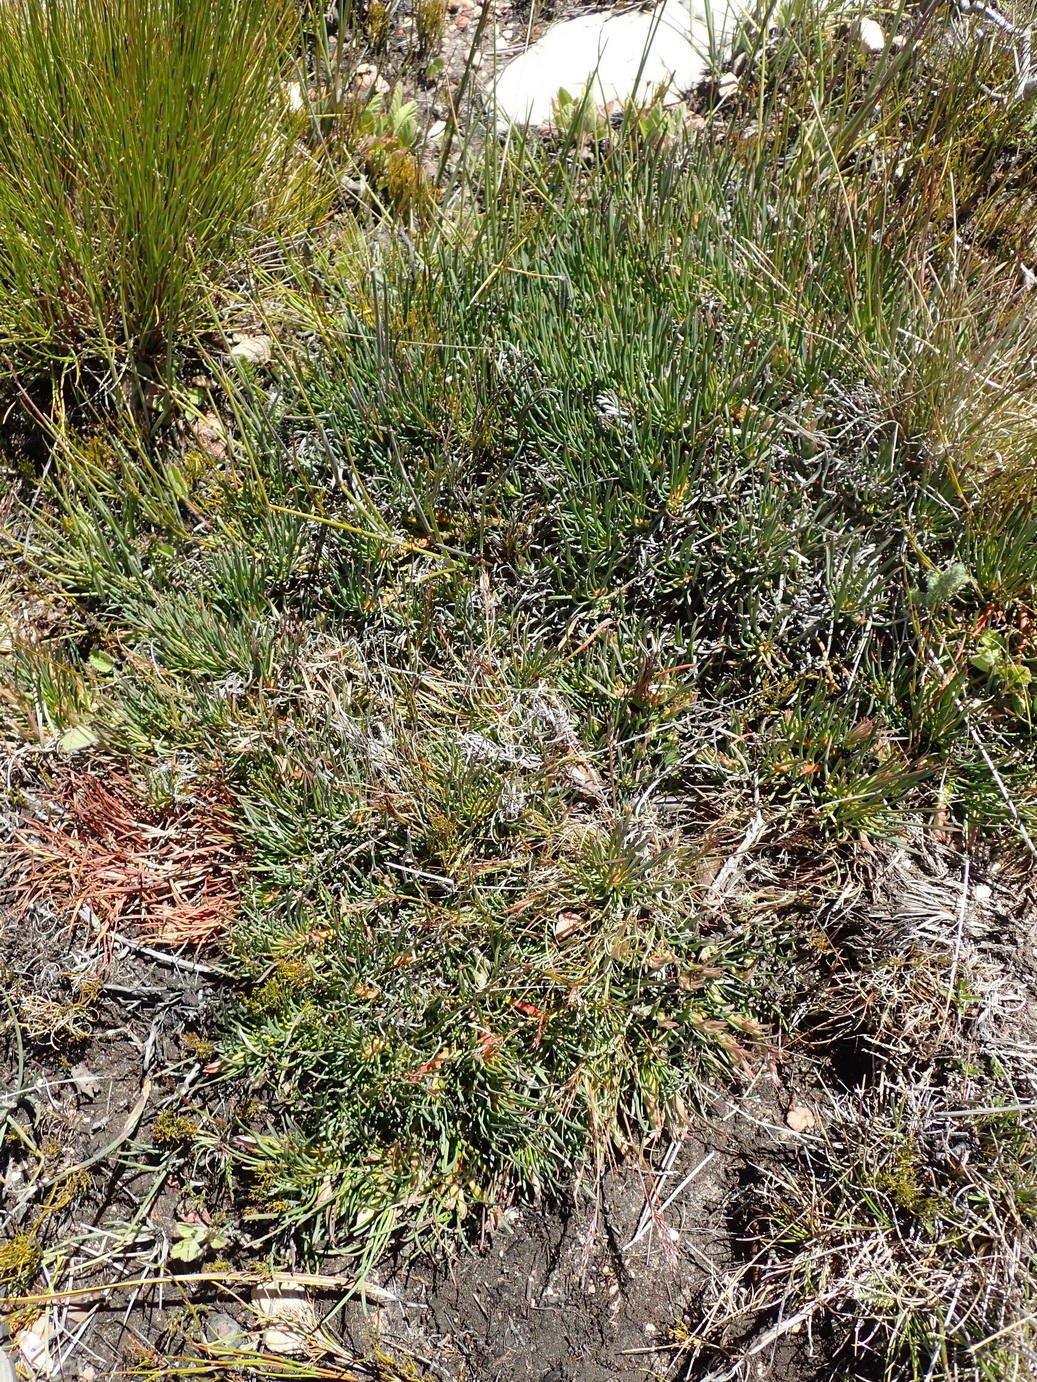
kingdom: Plantae
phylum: Tracheophyta
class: Magnoliopsida
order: Proteales
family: Proteaceae
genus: Protea
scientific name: Protea montana
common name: Swartberg sugarbush
